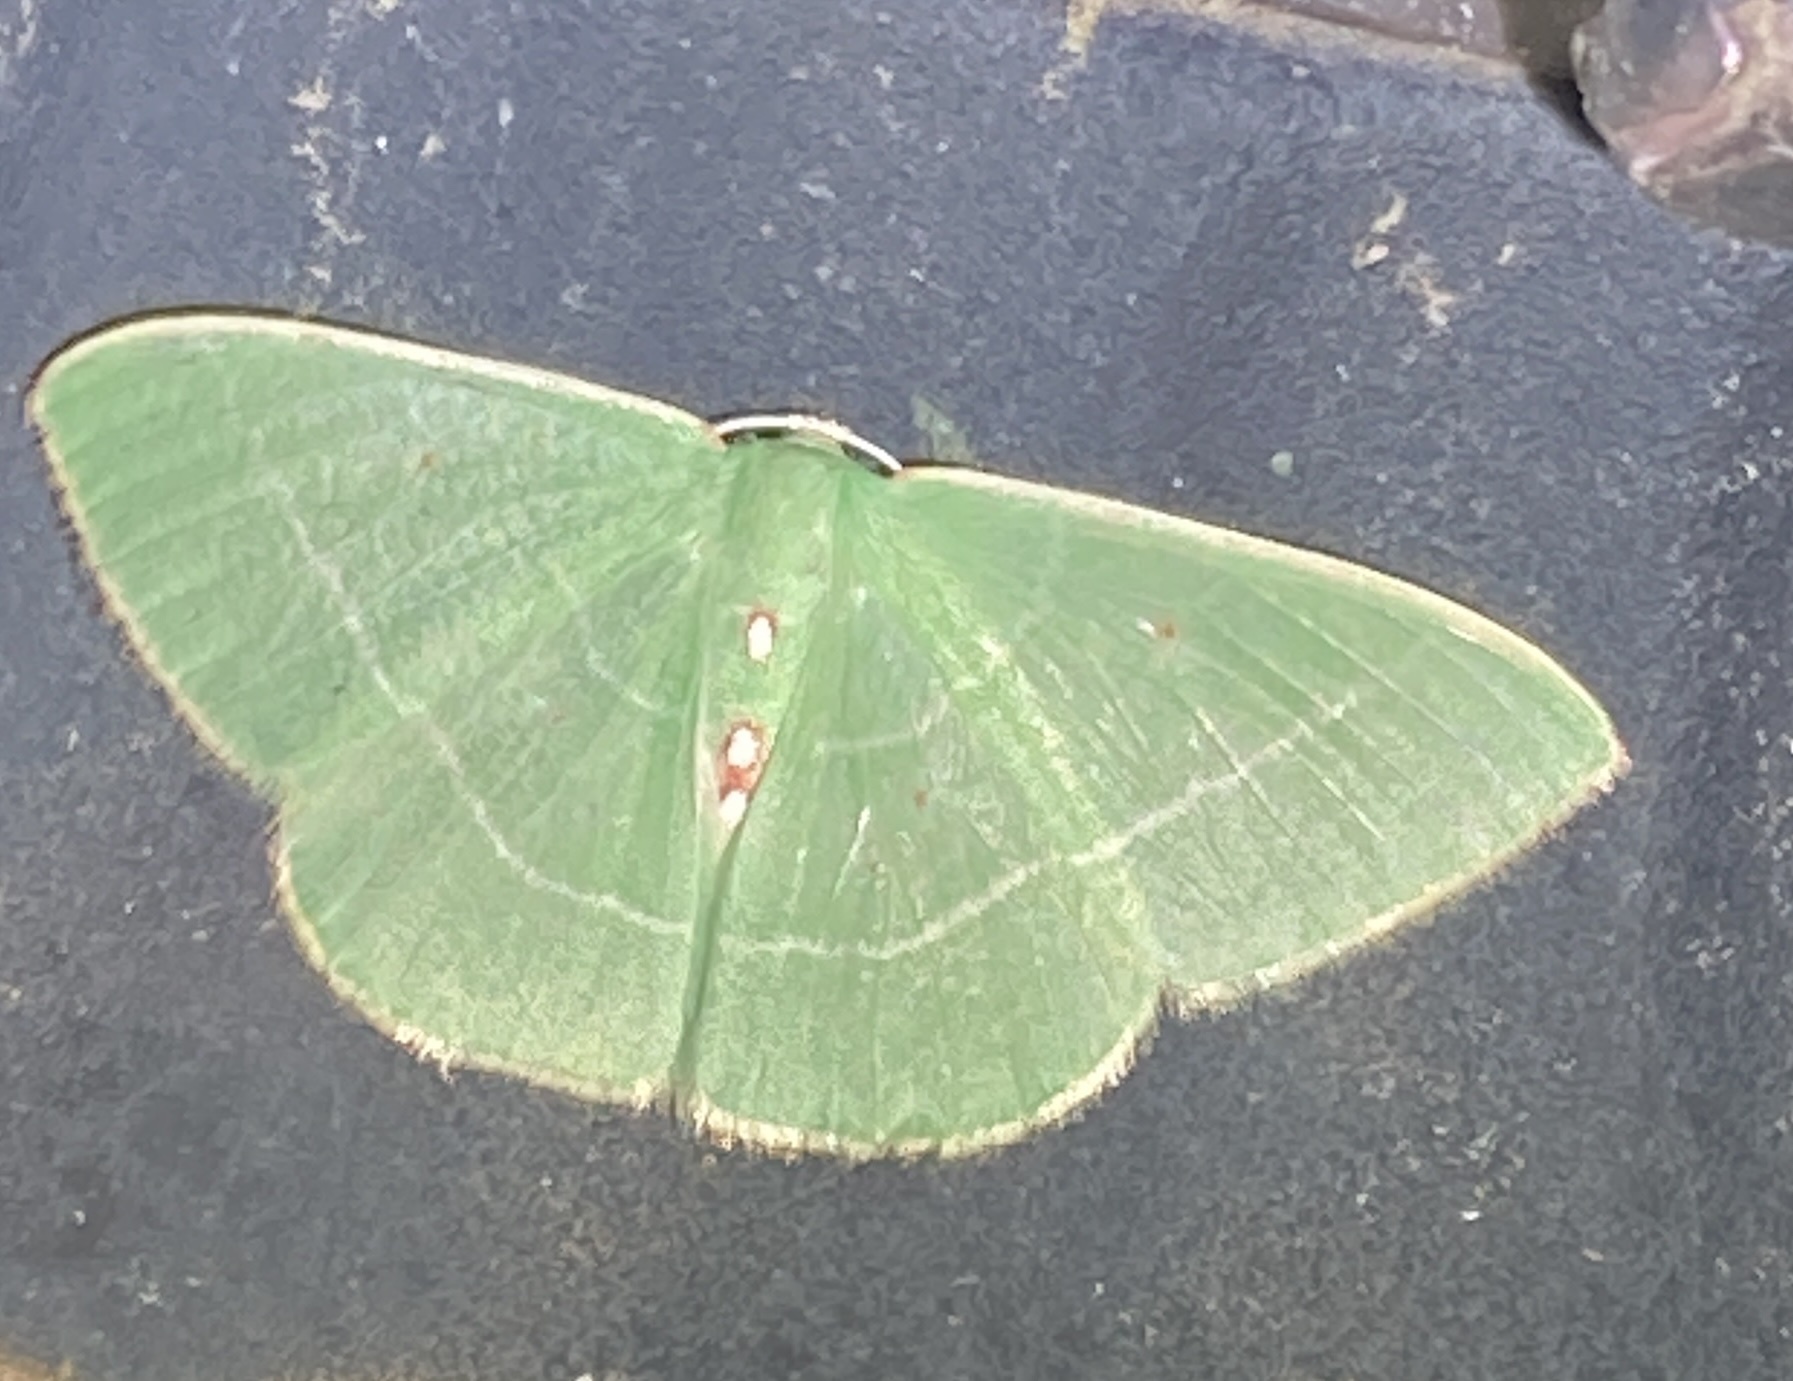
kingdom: Animalia
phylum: Arthropoda
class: Insecta
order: Lepidoptera
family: Geometridae
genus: Nemoria
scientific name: Nemoria darwiniata
